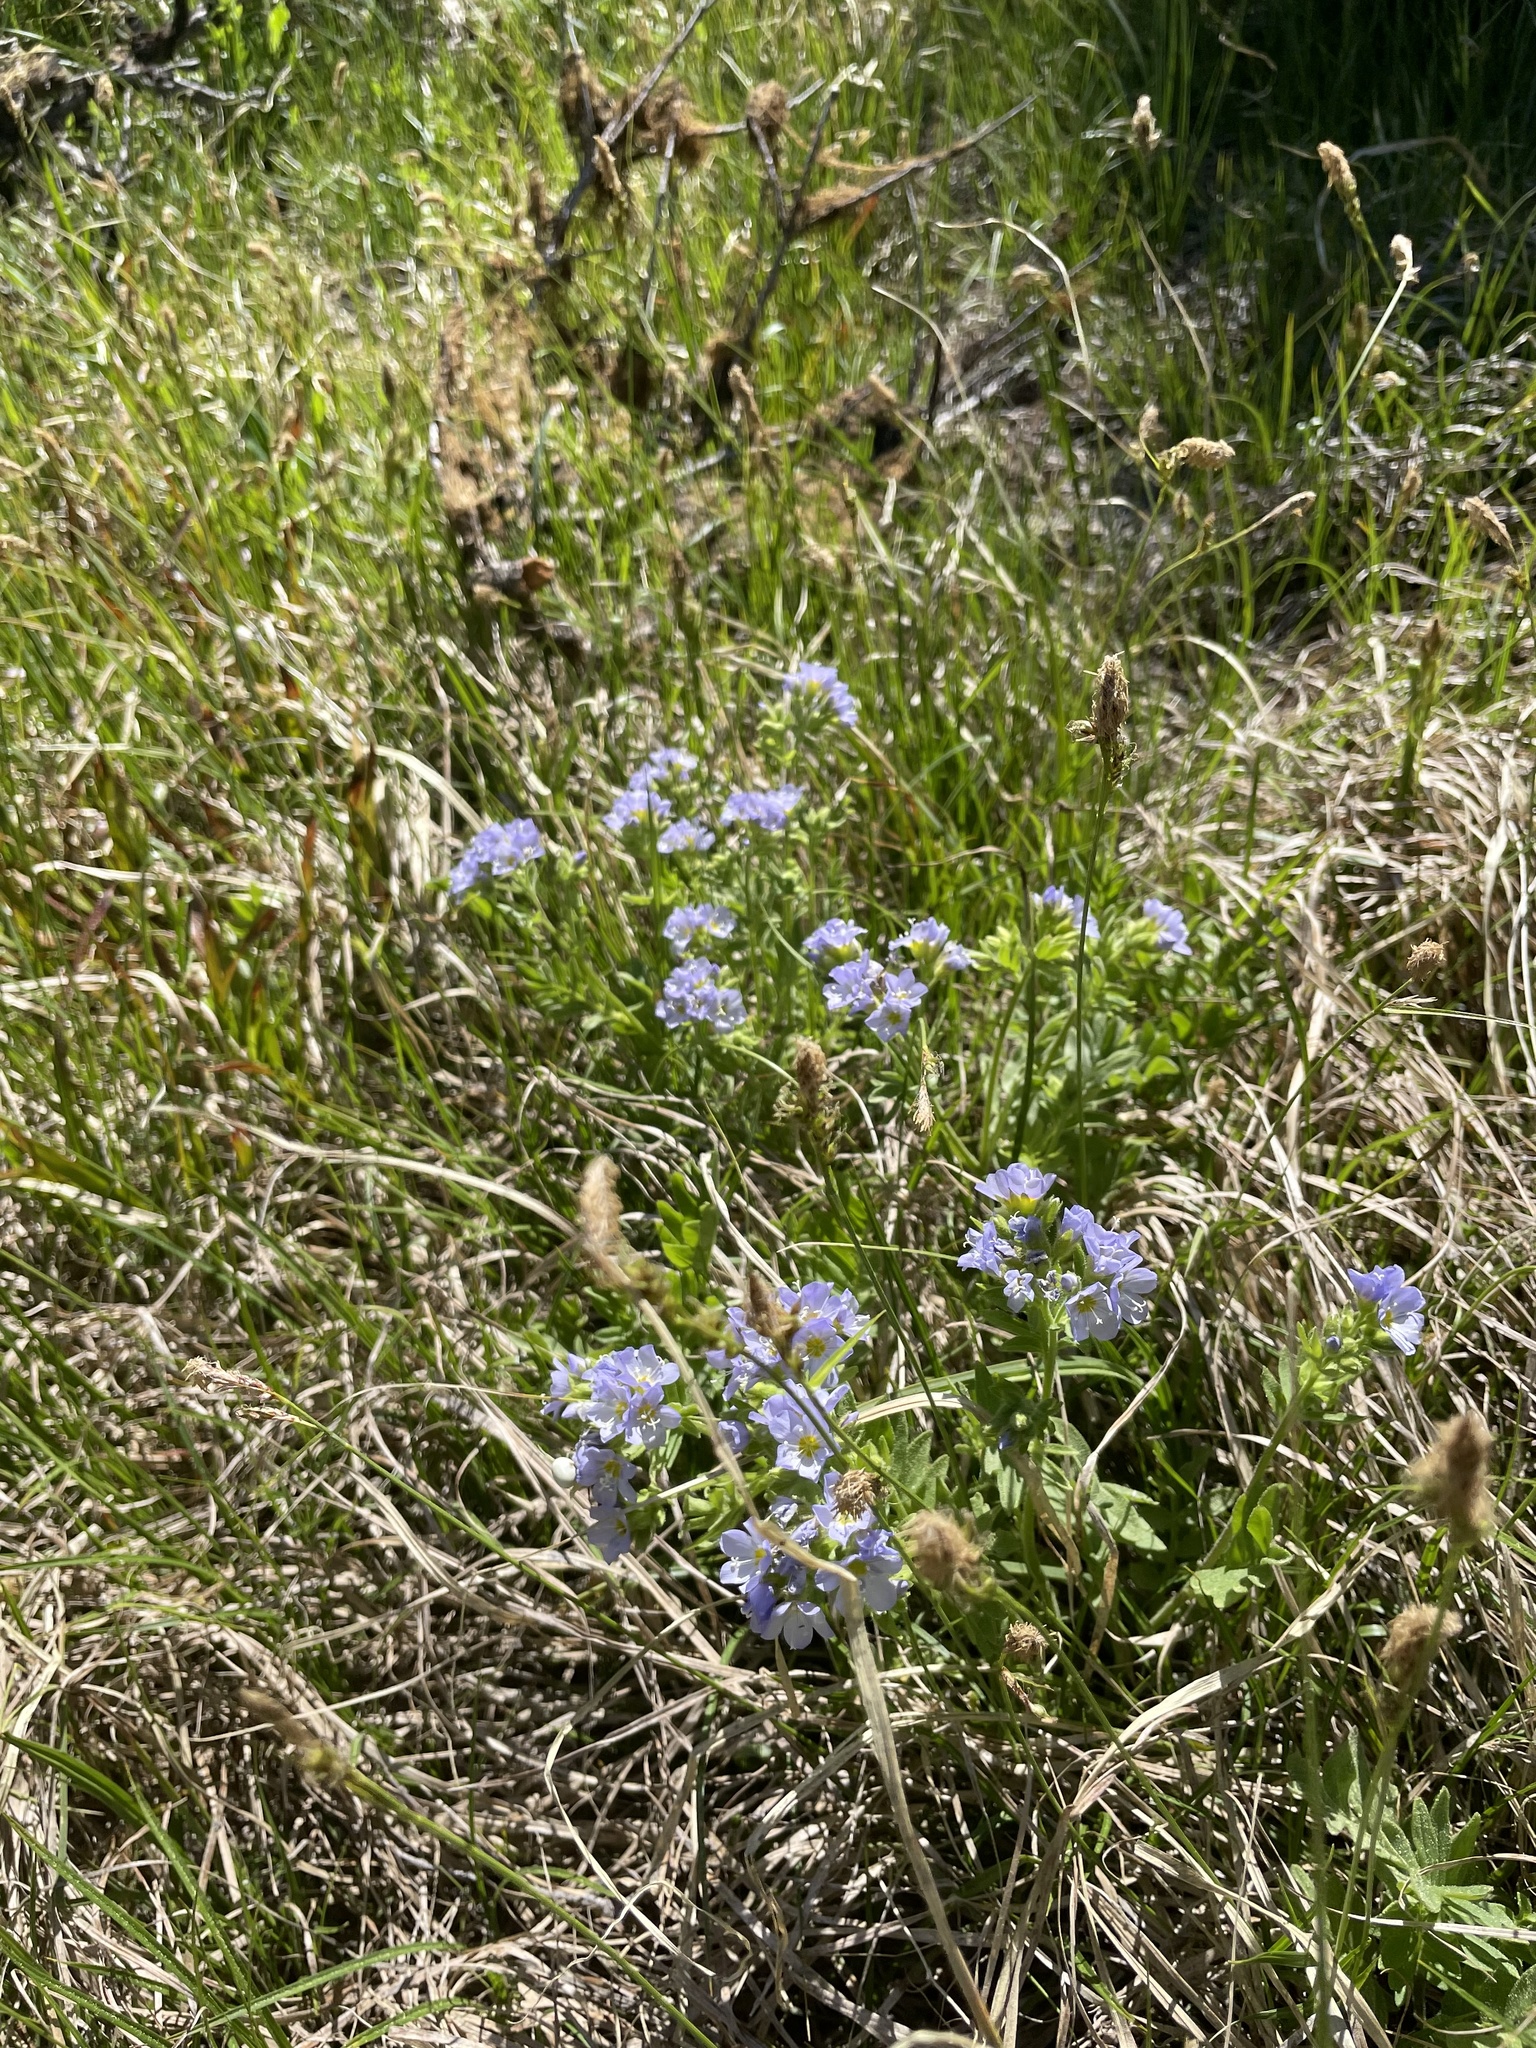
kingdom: Plantae
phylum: Tracheophyta
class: Magnoliopsida
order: Ericales
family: Polemoniaceae
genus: Polemonium
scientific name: Polemonium californicum
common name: California jacob's ladder
